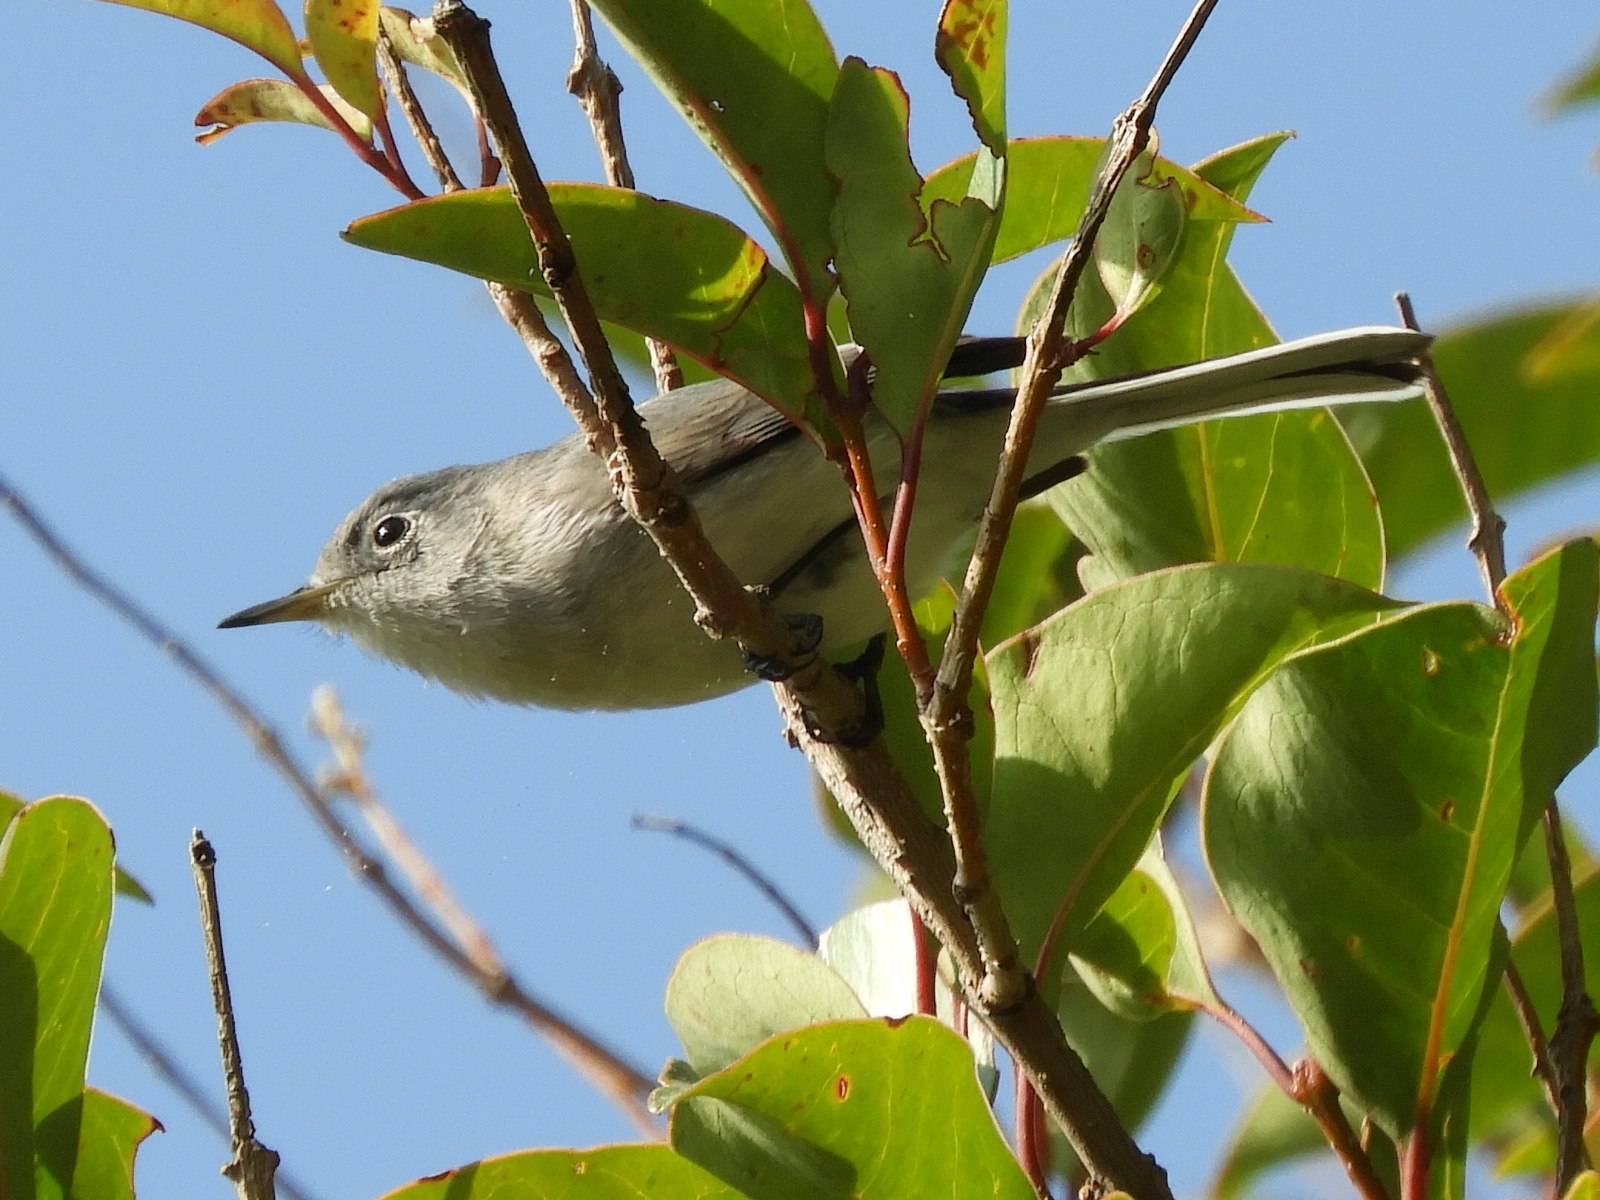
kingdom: Animalia
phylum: Chordata
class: Aves
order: Passeriformes
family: Polioptilidae
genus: Polioptila
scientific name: Polioptila caerulea
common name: Blue-gray gnatcatcher
